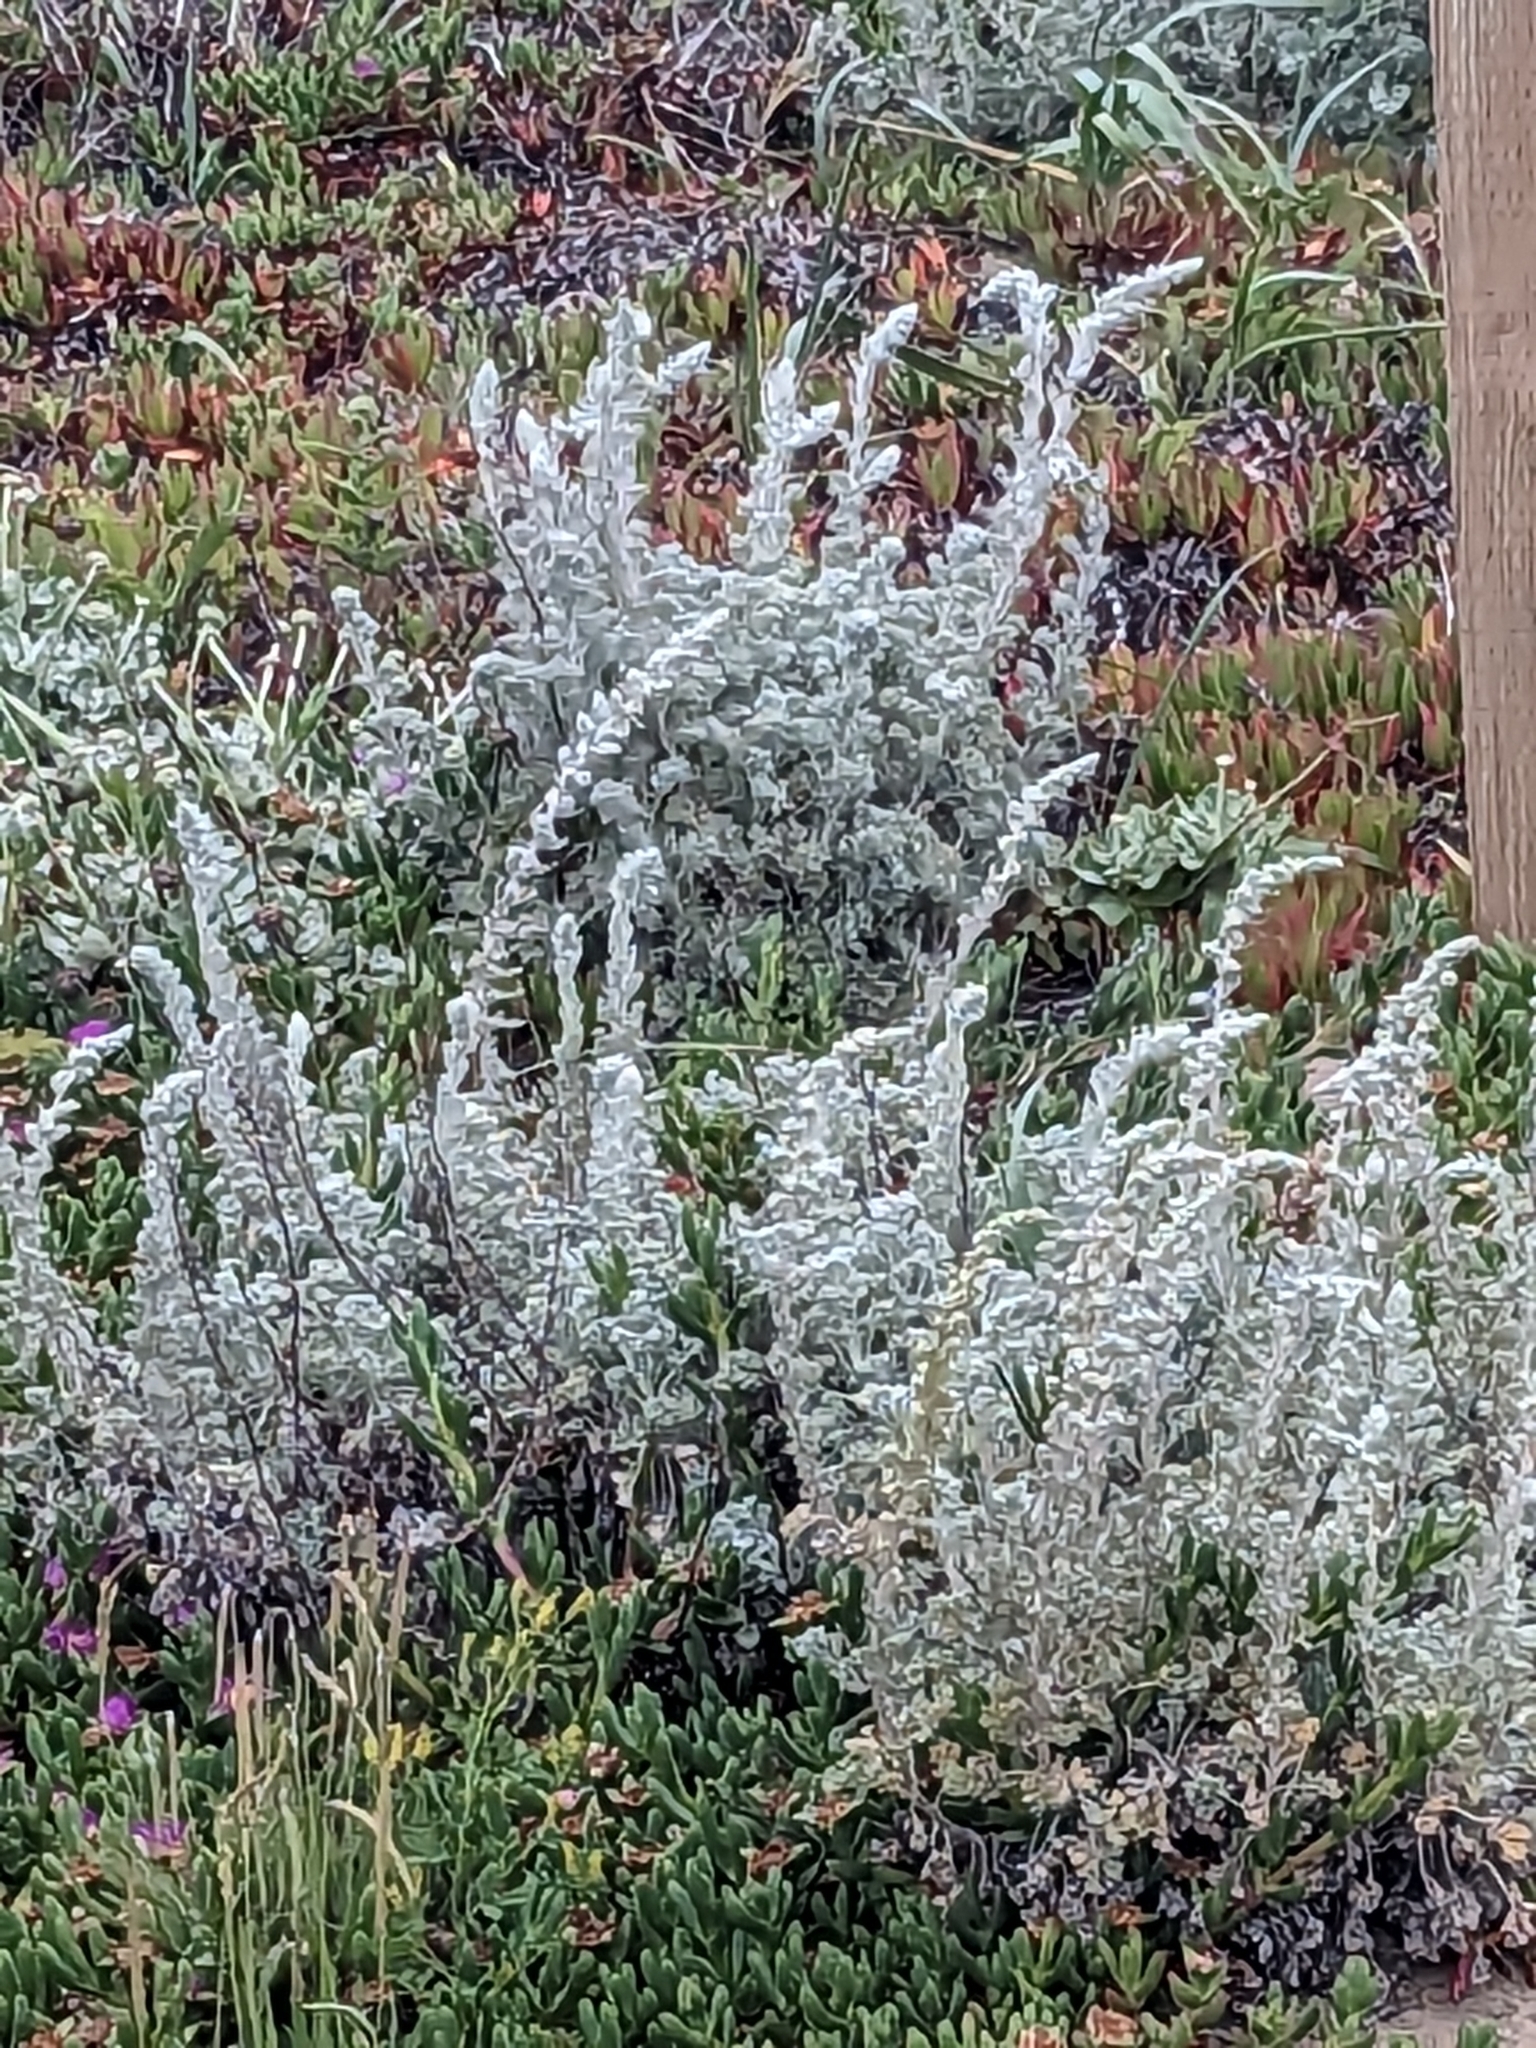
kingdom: Plantae
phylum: Tracheophyta
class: Magnoliopsida
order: Asterales
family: Asteraceae
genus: Artemisia
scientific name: Artemisia pycnocephala
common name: Coastal sagewort
